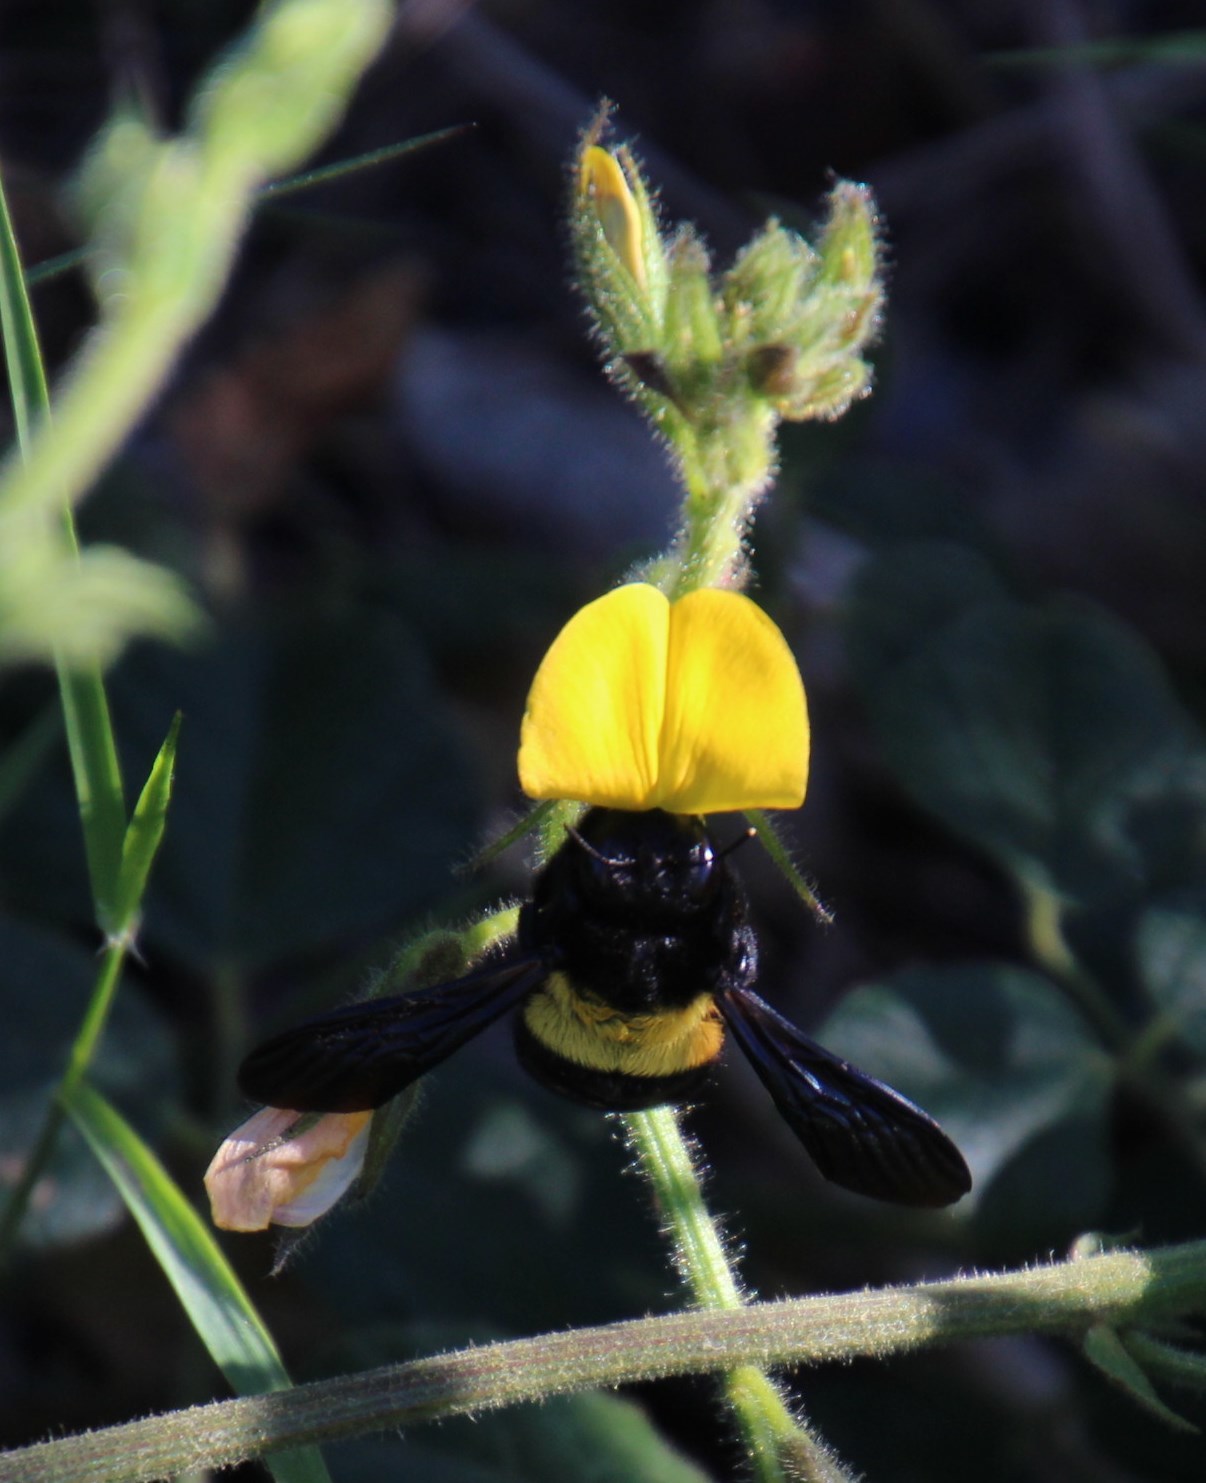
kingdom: Animalia
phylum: Arthropoda
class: Insecta
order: Hymenoptera
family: Apidae
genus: Xylocopa
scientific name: Xylocopa caffra
